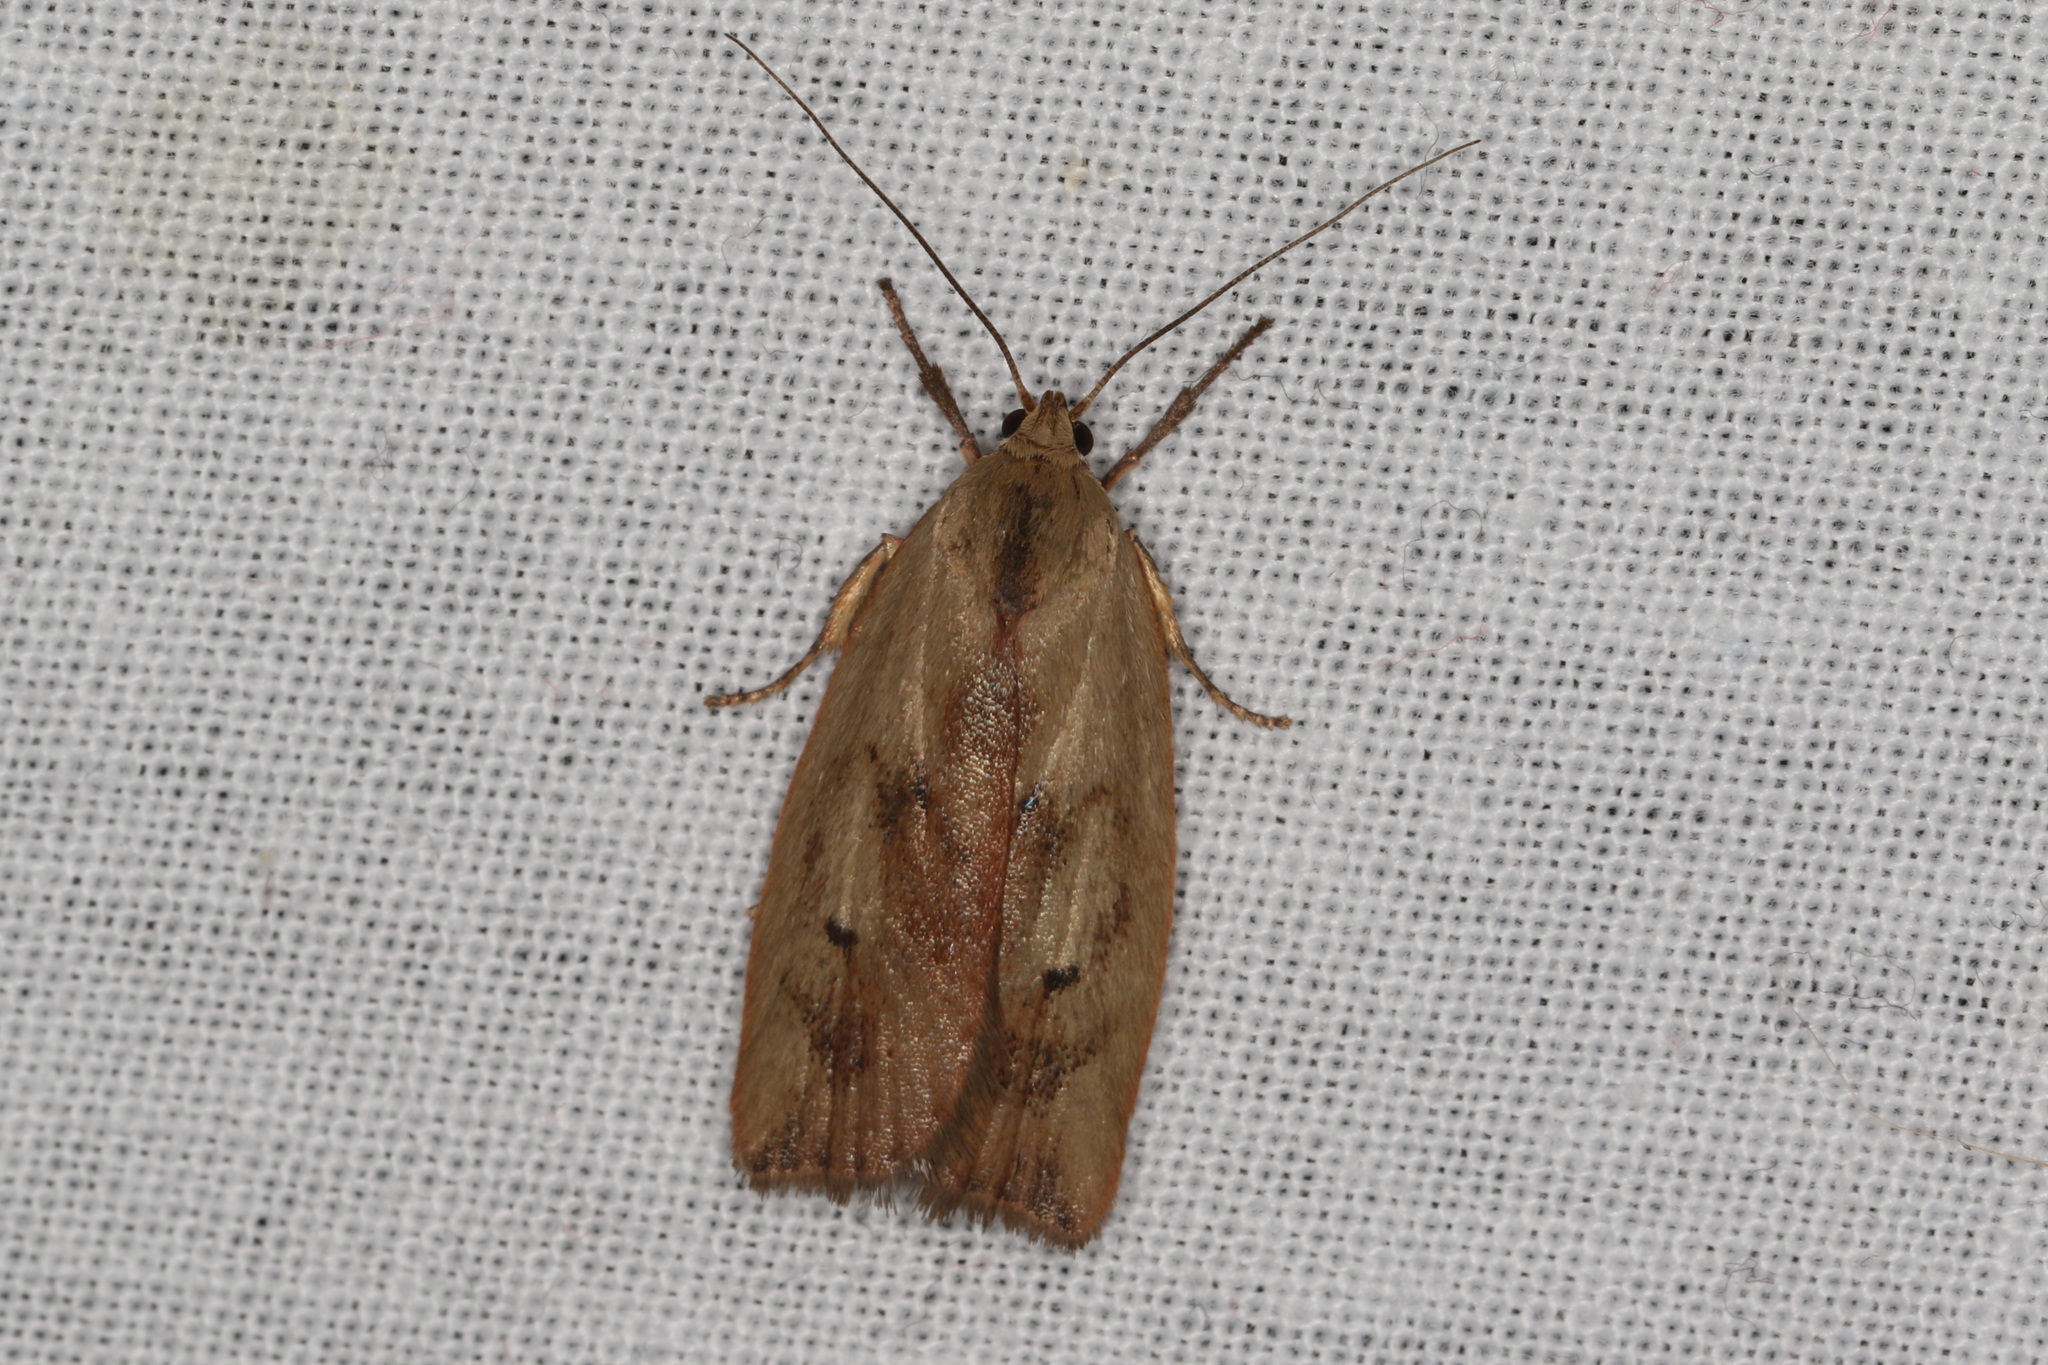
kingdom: Animalia
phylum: Arthropoda
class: Insecta
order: Lepidoptera
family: Depressariidae
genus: Cryptolechia
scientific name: Cryptolechia
